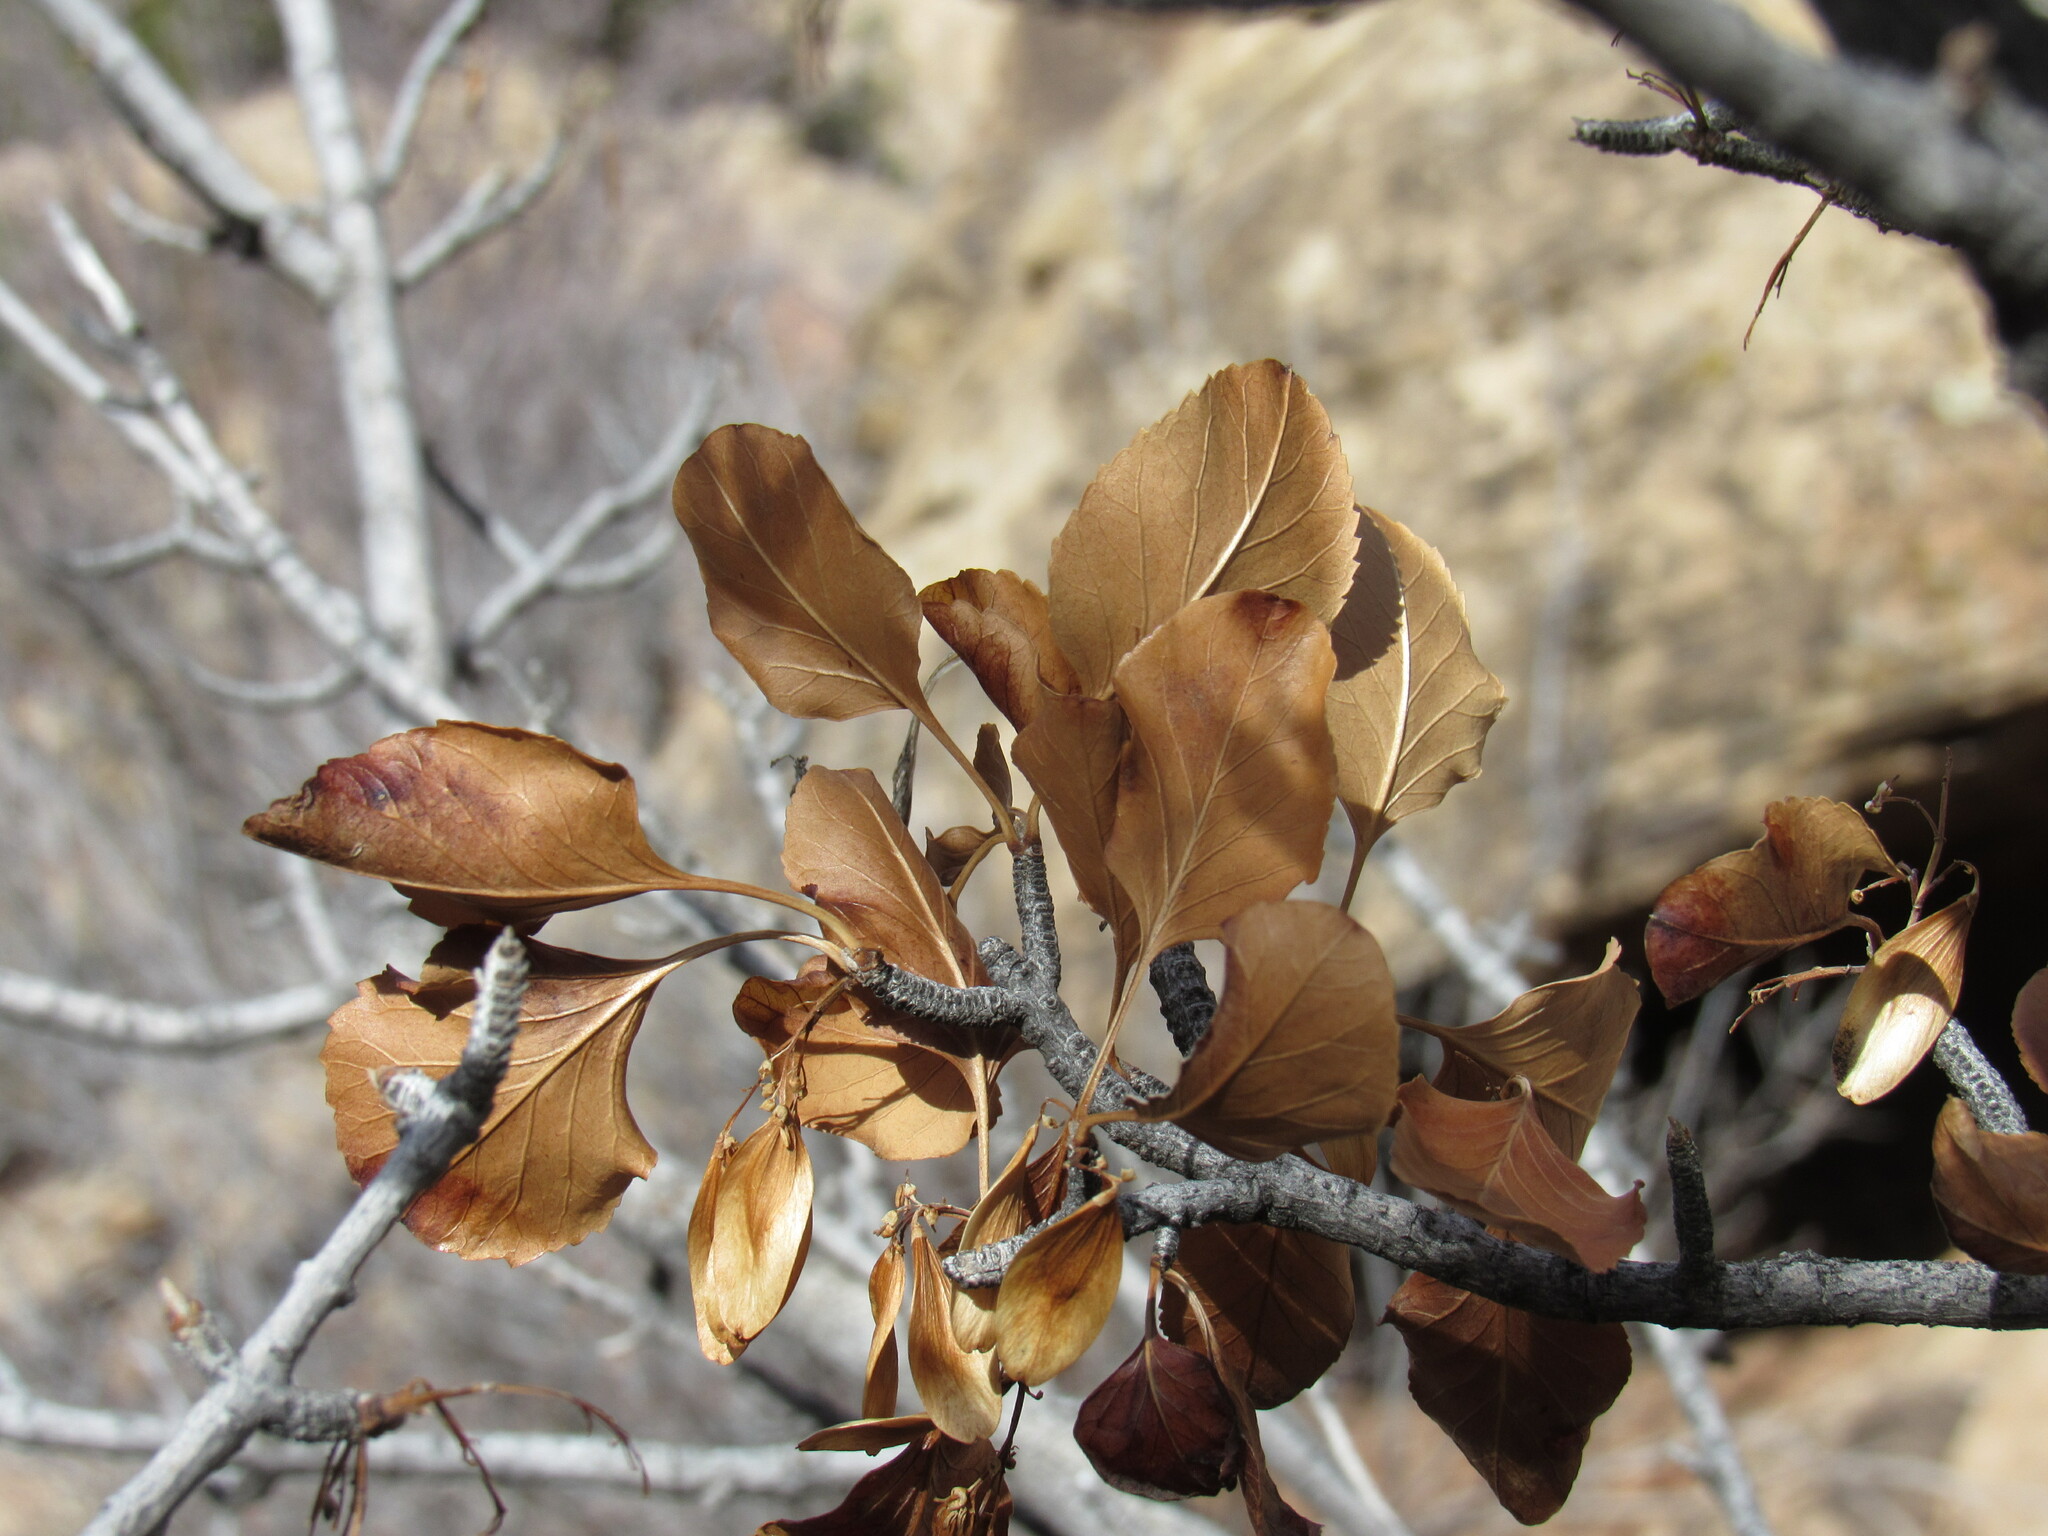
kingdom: Plantae
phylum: Tracheophyta
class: Magnoliopsida
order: Lamiales
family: Oleaceae
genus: Fraxinus
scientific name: Fraxinus anomala
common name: Utah ash
